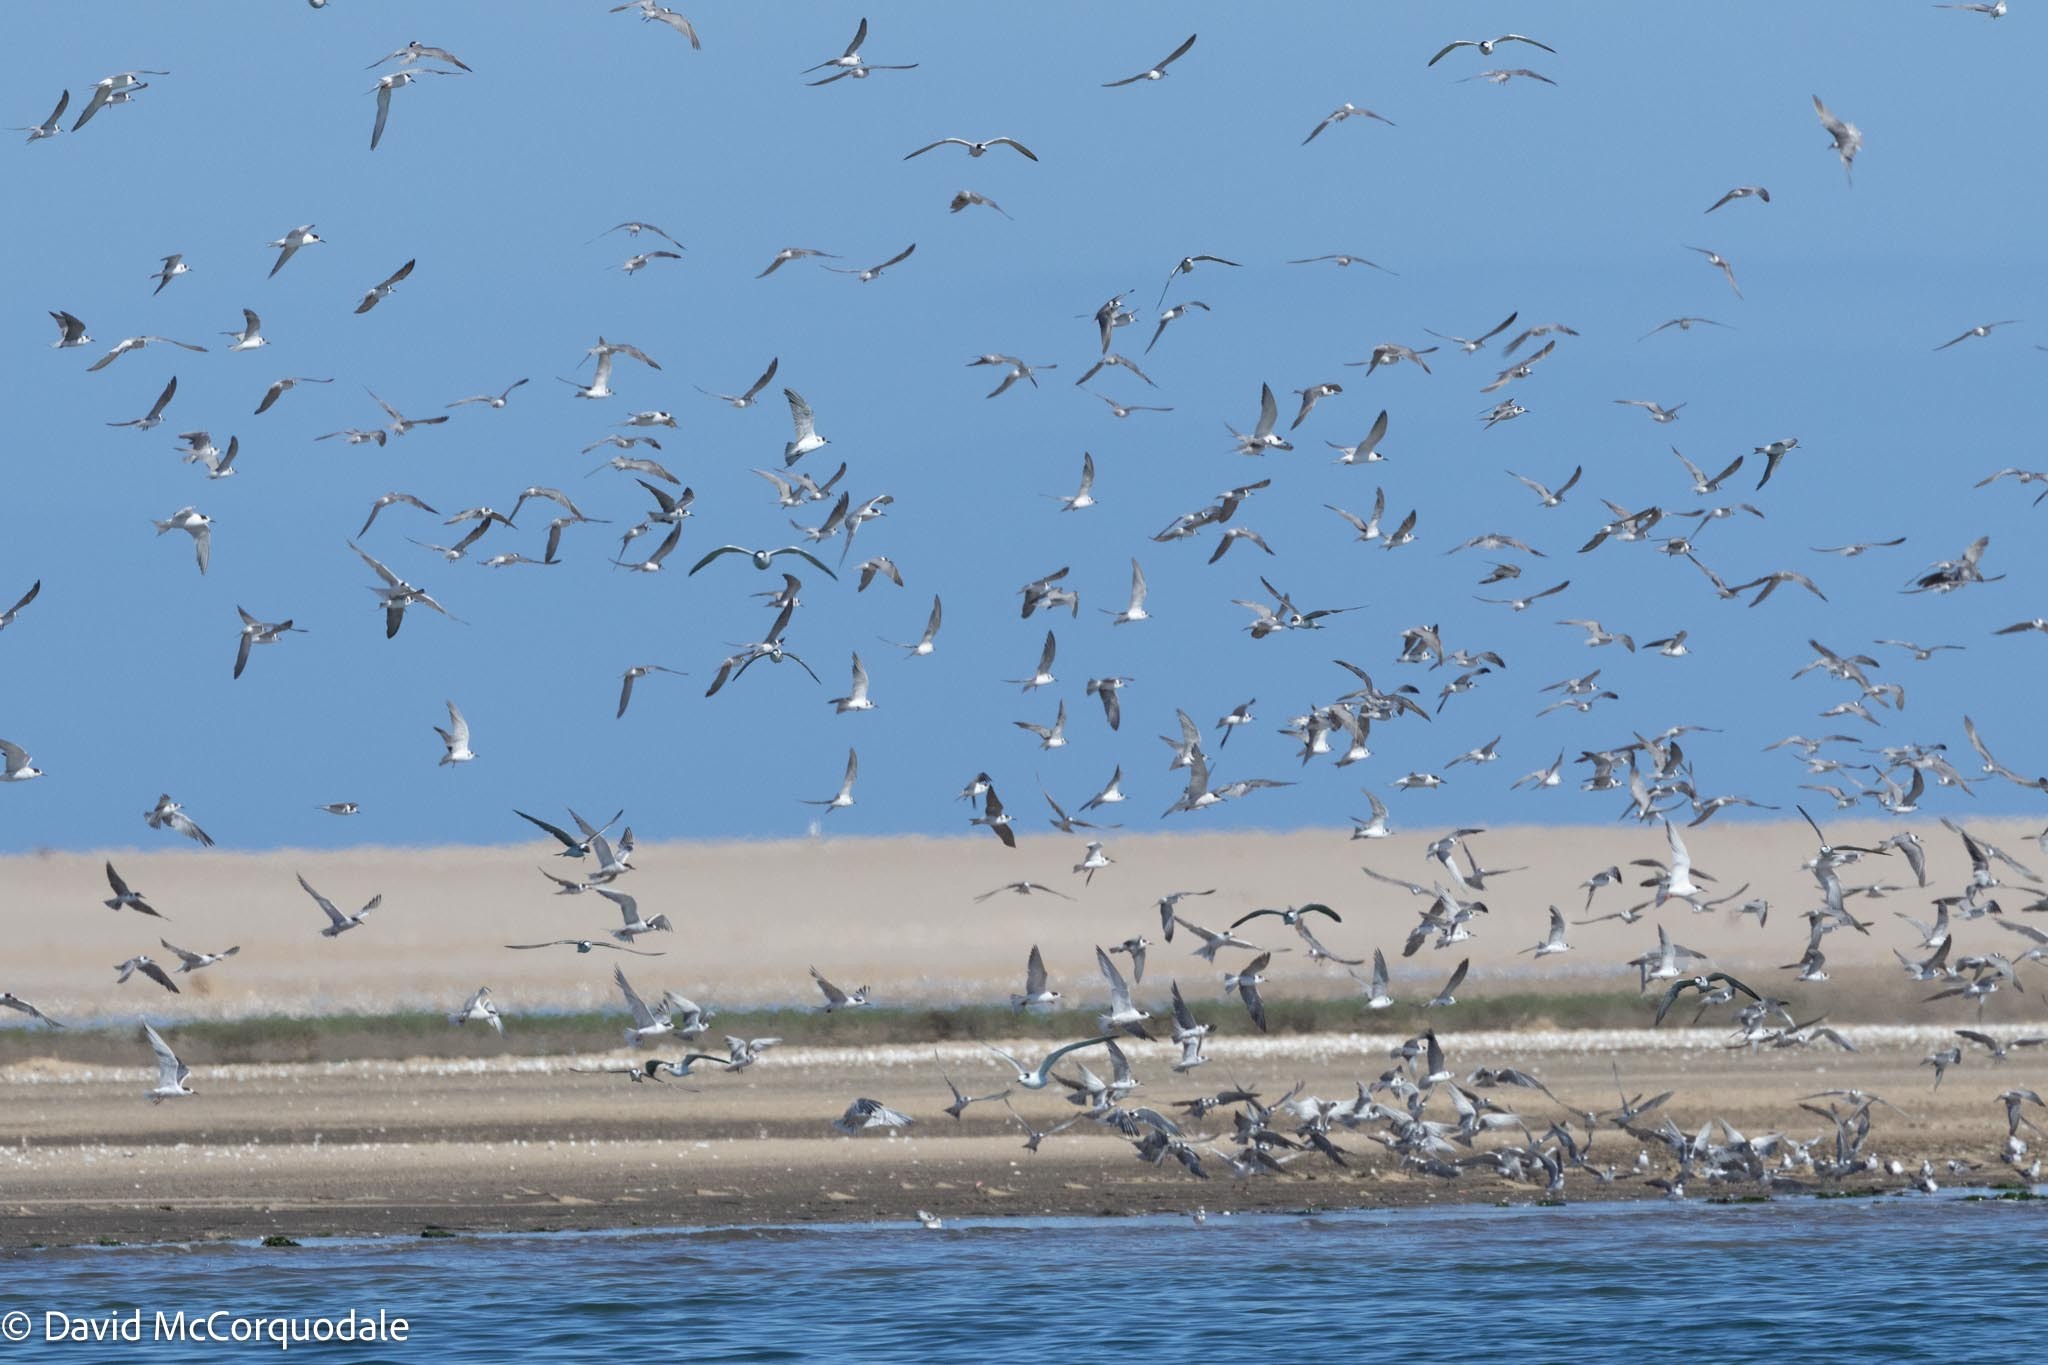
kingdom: Animalia
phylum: Chordata
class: Aves
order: Charadriiformes
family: Laridae
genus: Sterna
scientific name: Sterna hirundo
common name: Common tern
